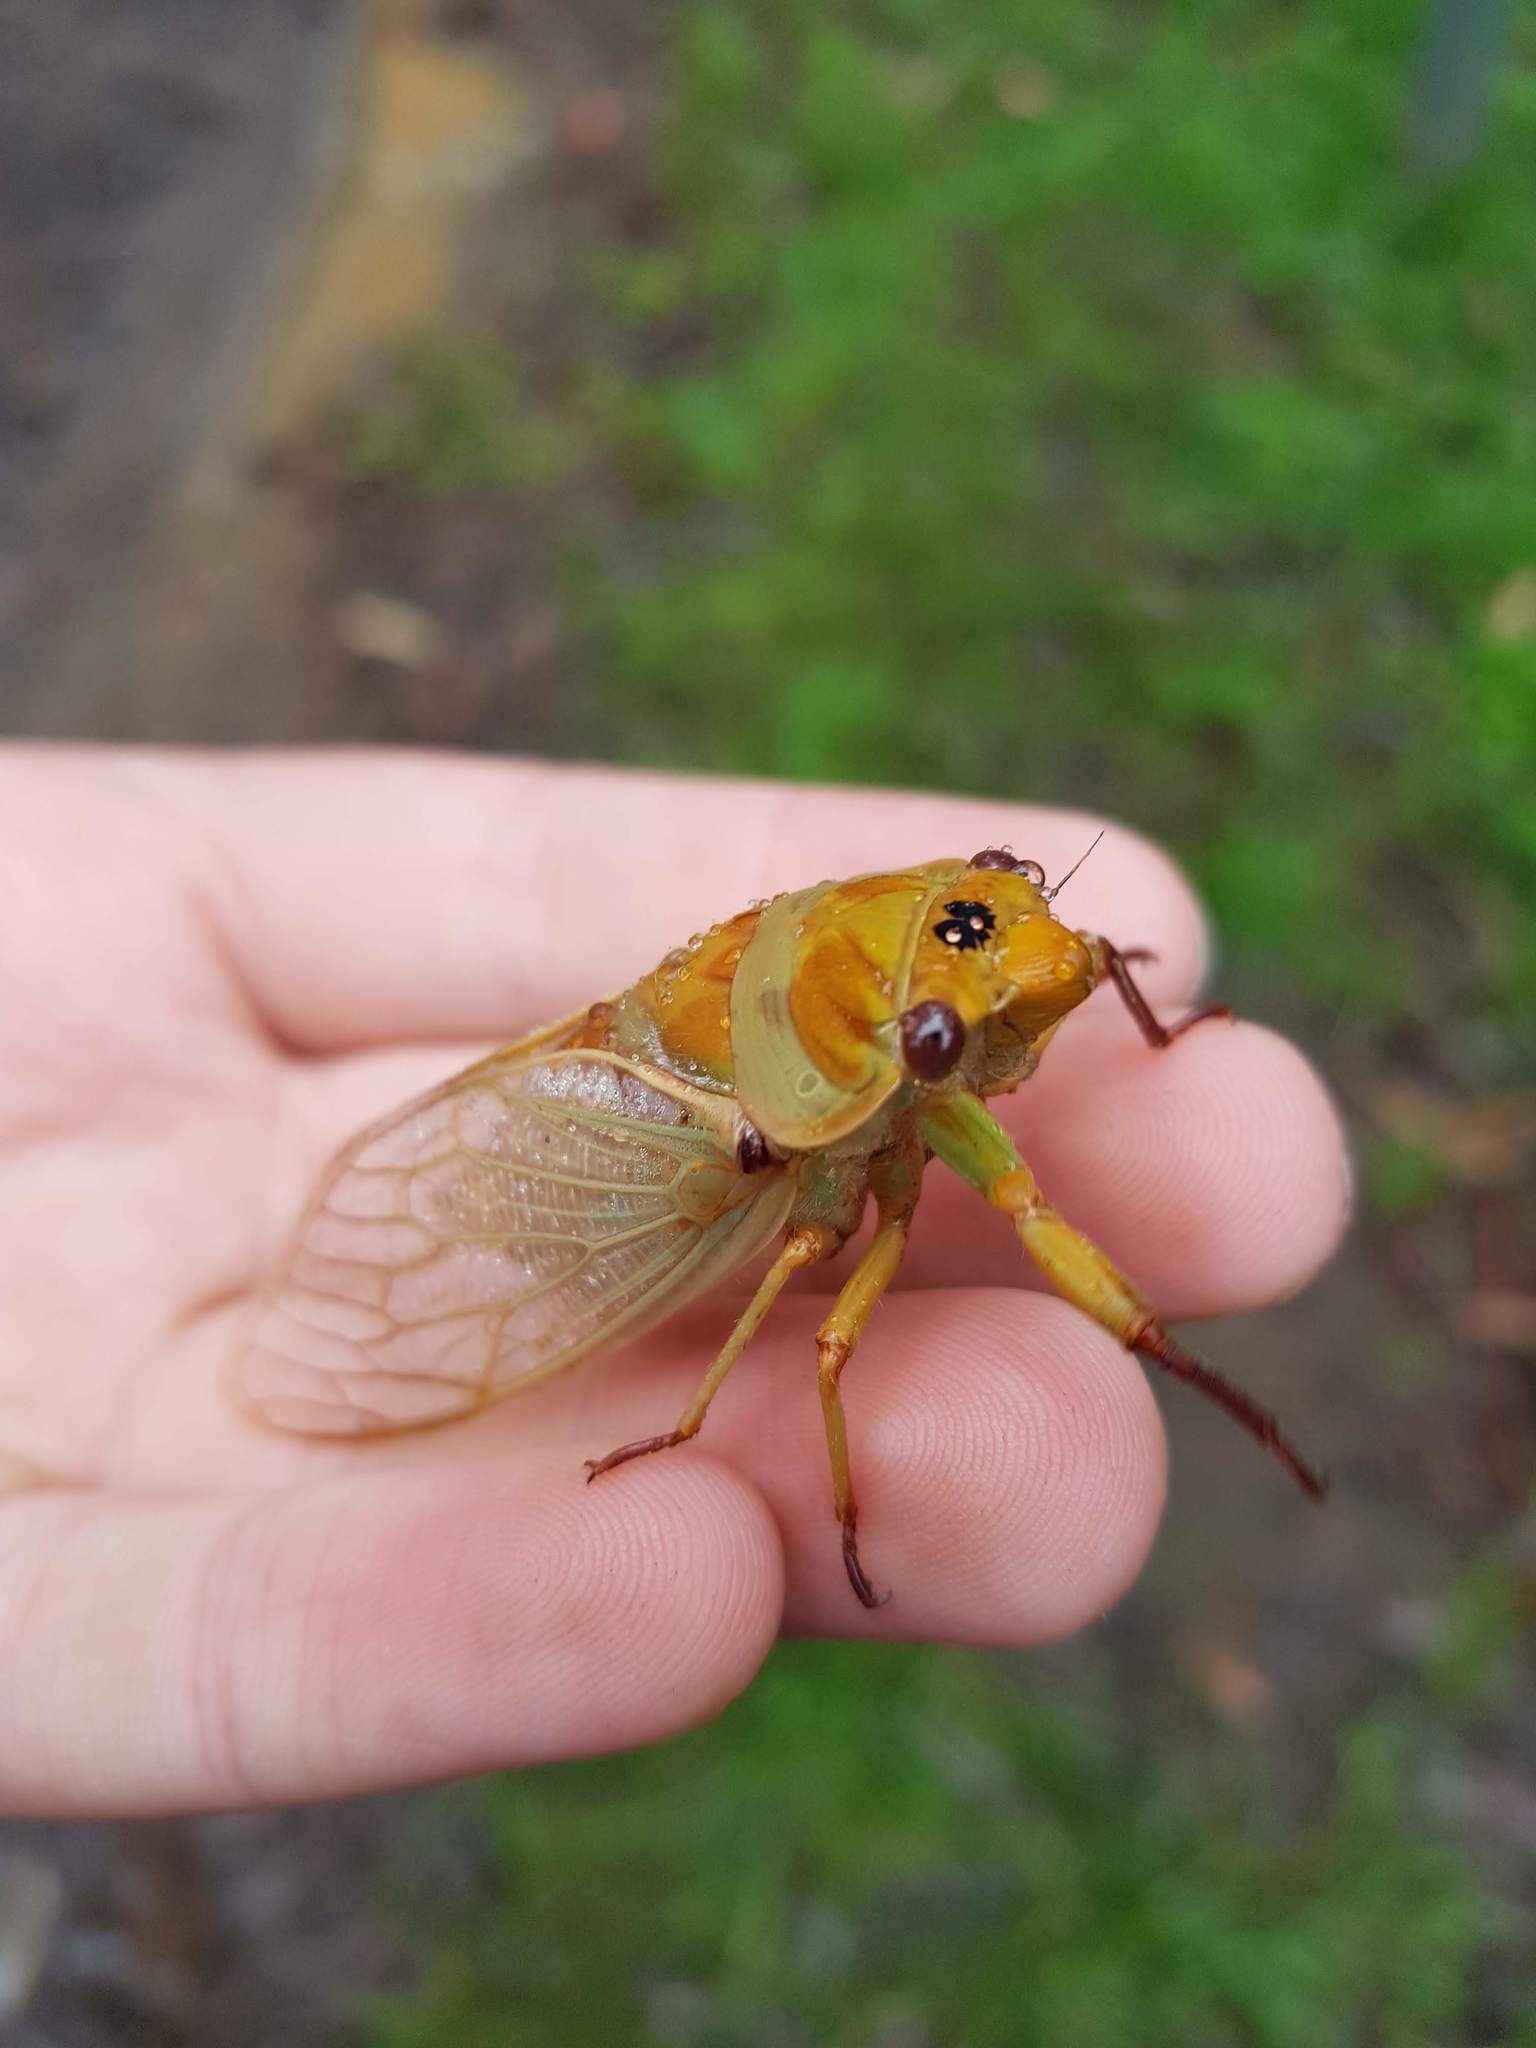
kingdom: Animalia
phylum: Arthropoda
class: Insecta
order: Hemiptera
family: Cicadidae
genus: Cyclochila
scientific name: Cyclochila australasiae
